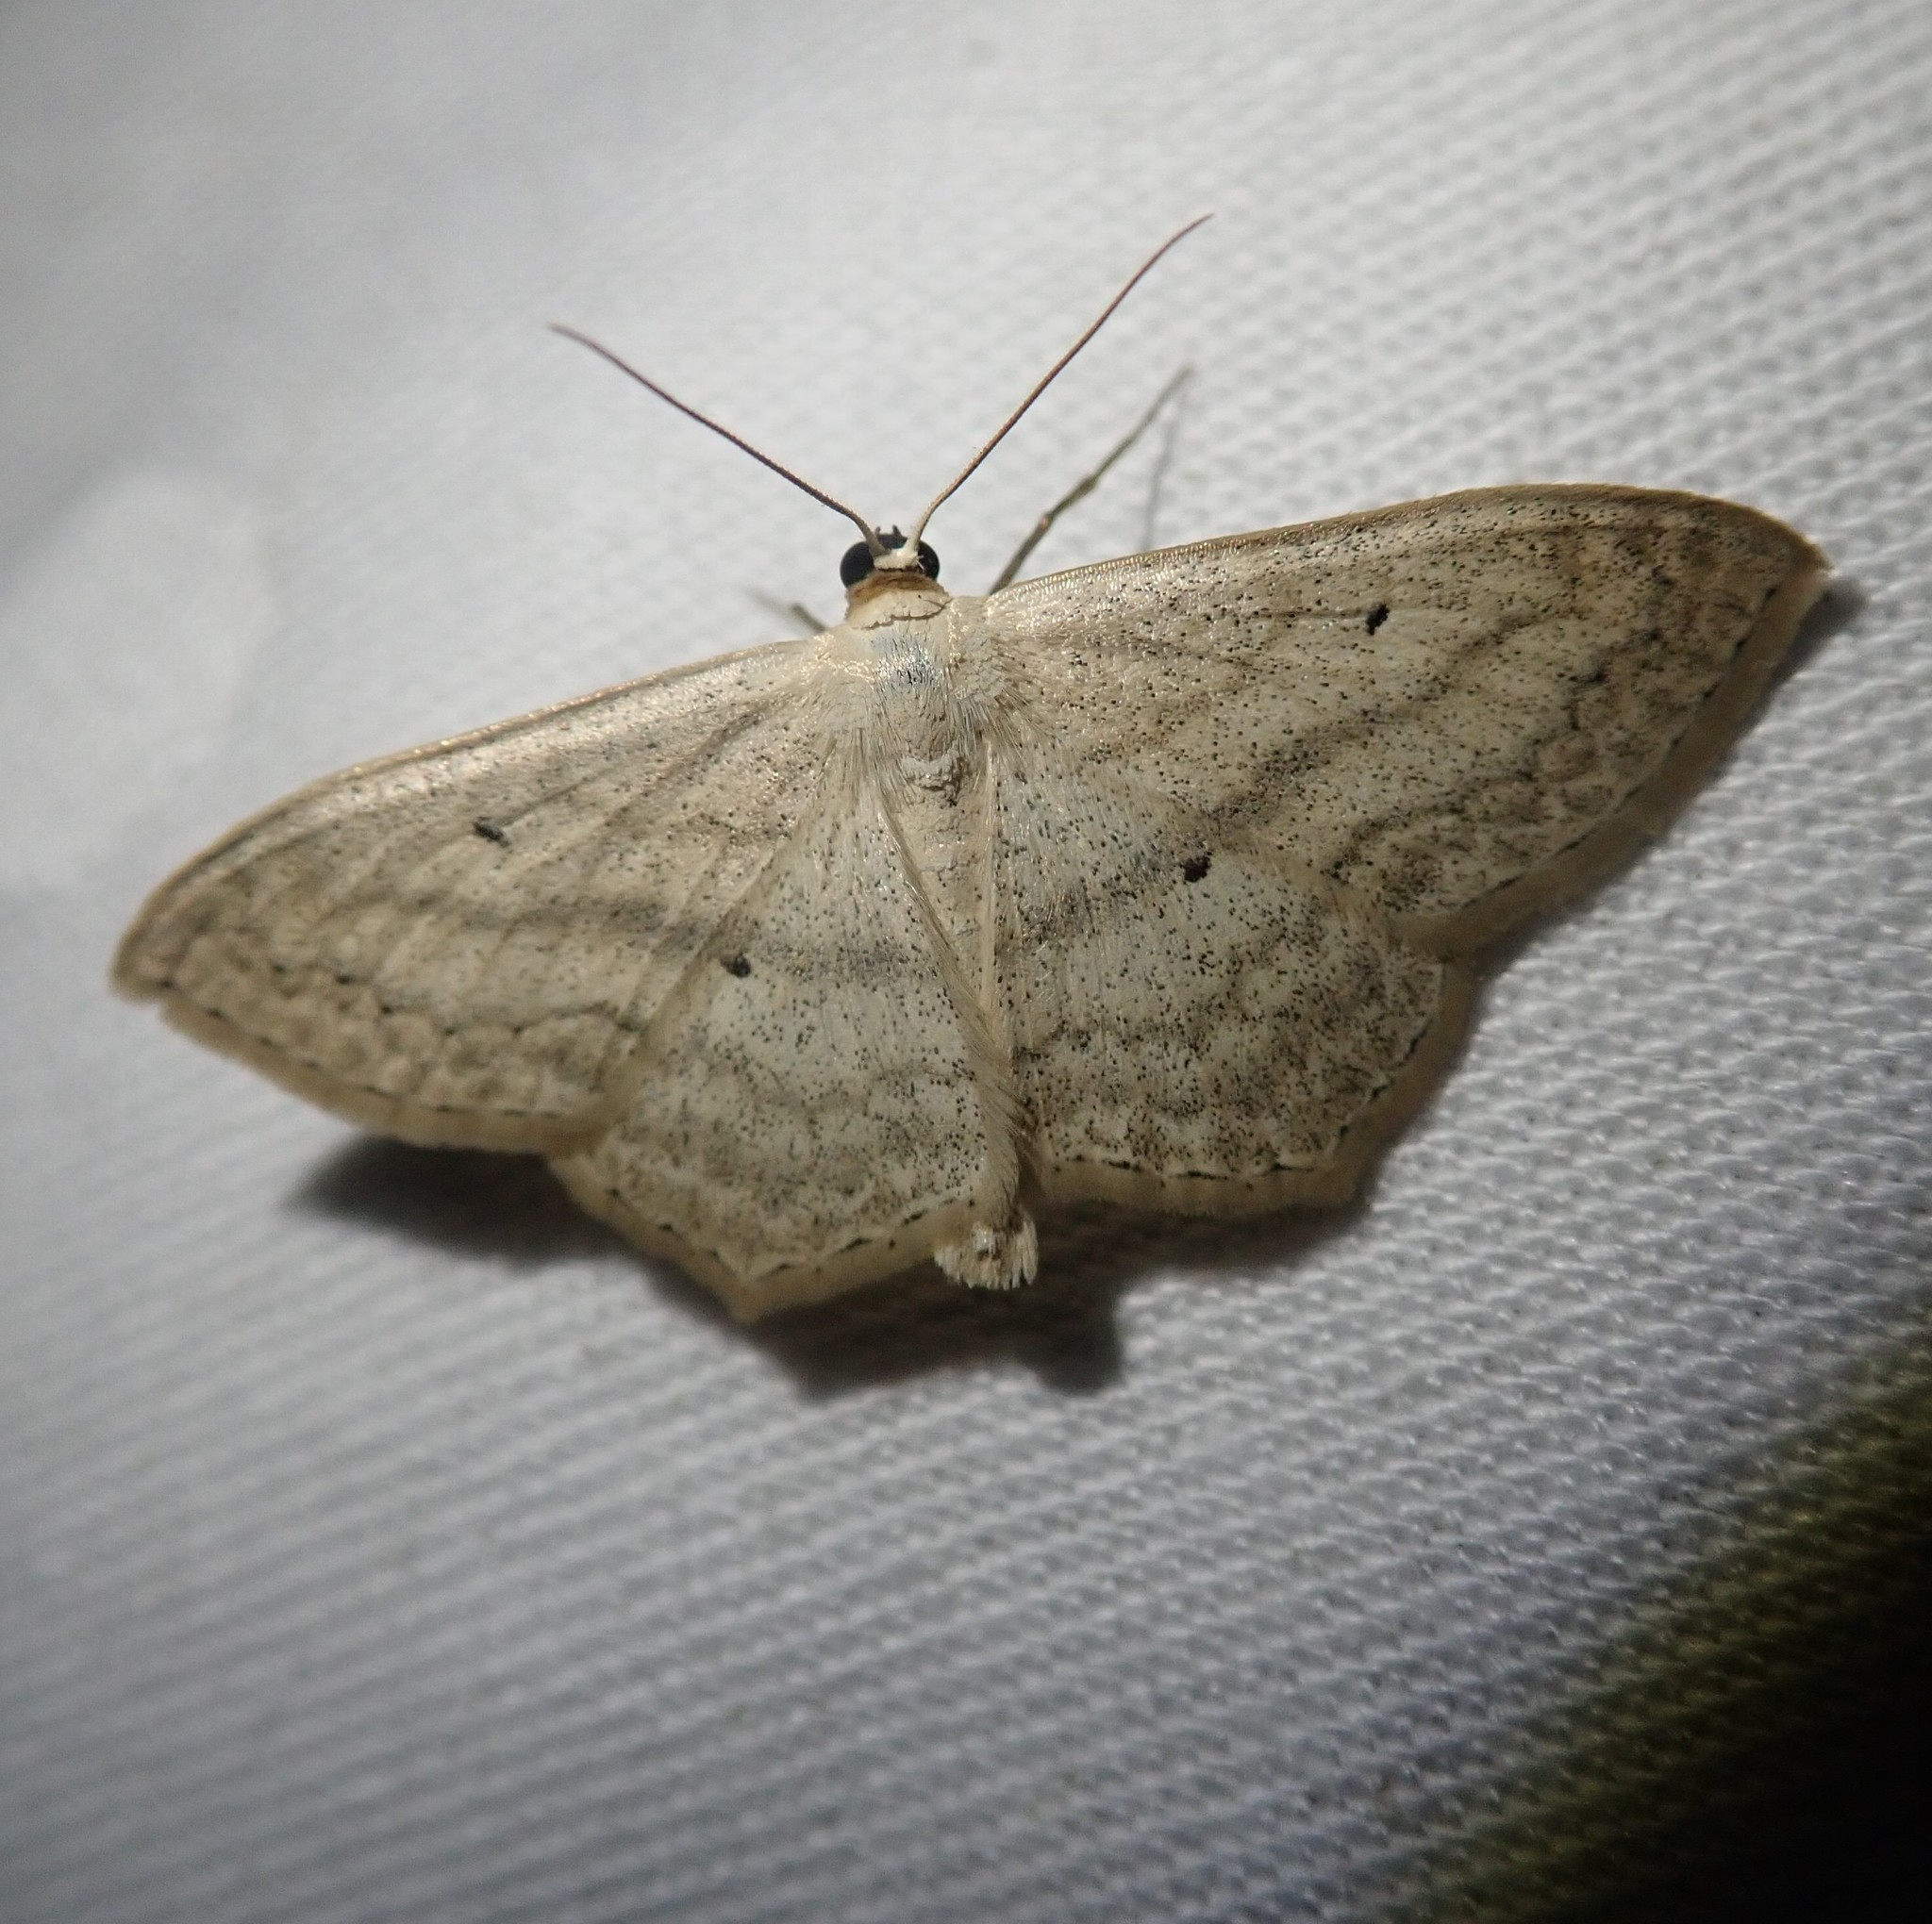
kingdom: Animalia
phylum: Arthropoda
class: Insecta
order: Lepidoptera
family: Geometridae
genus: Scopula
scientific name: Scopula nigropunctata
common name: Sub-angled wave
